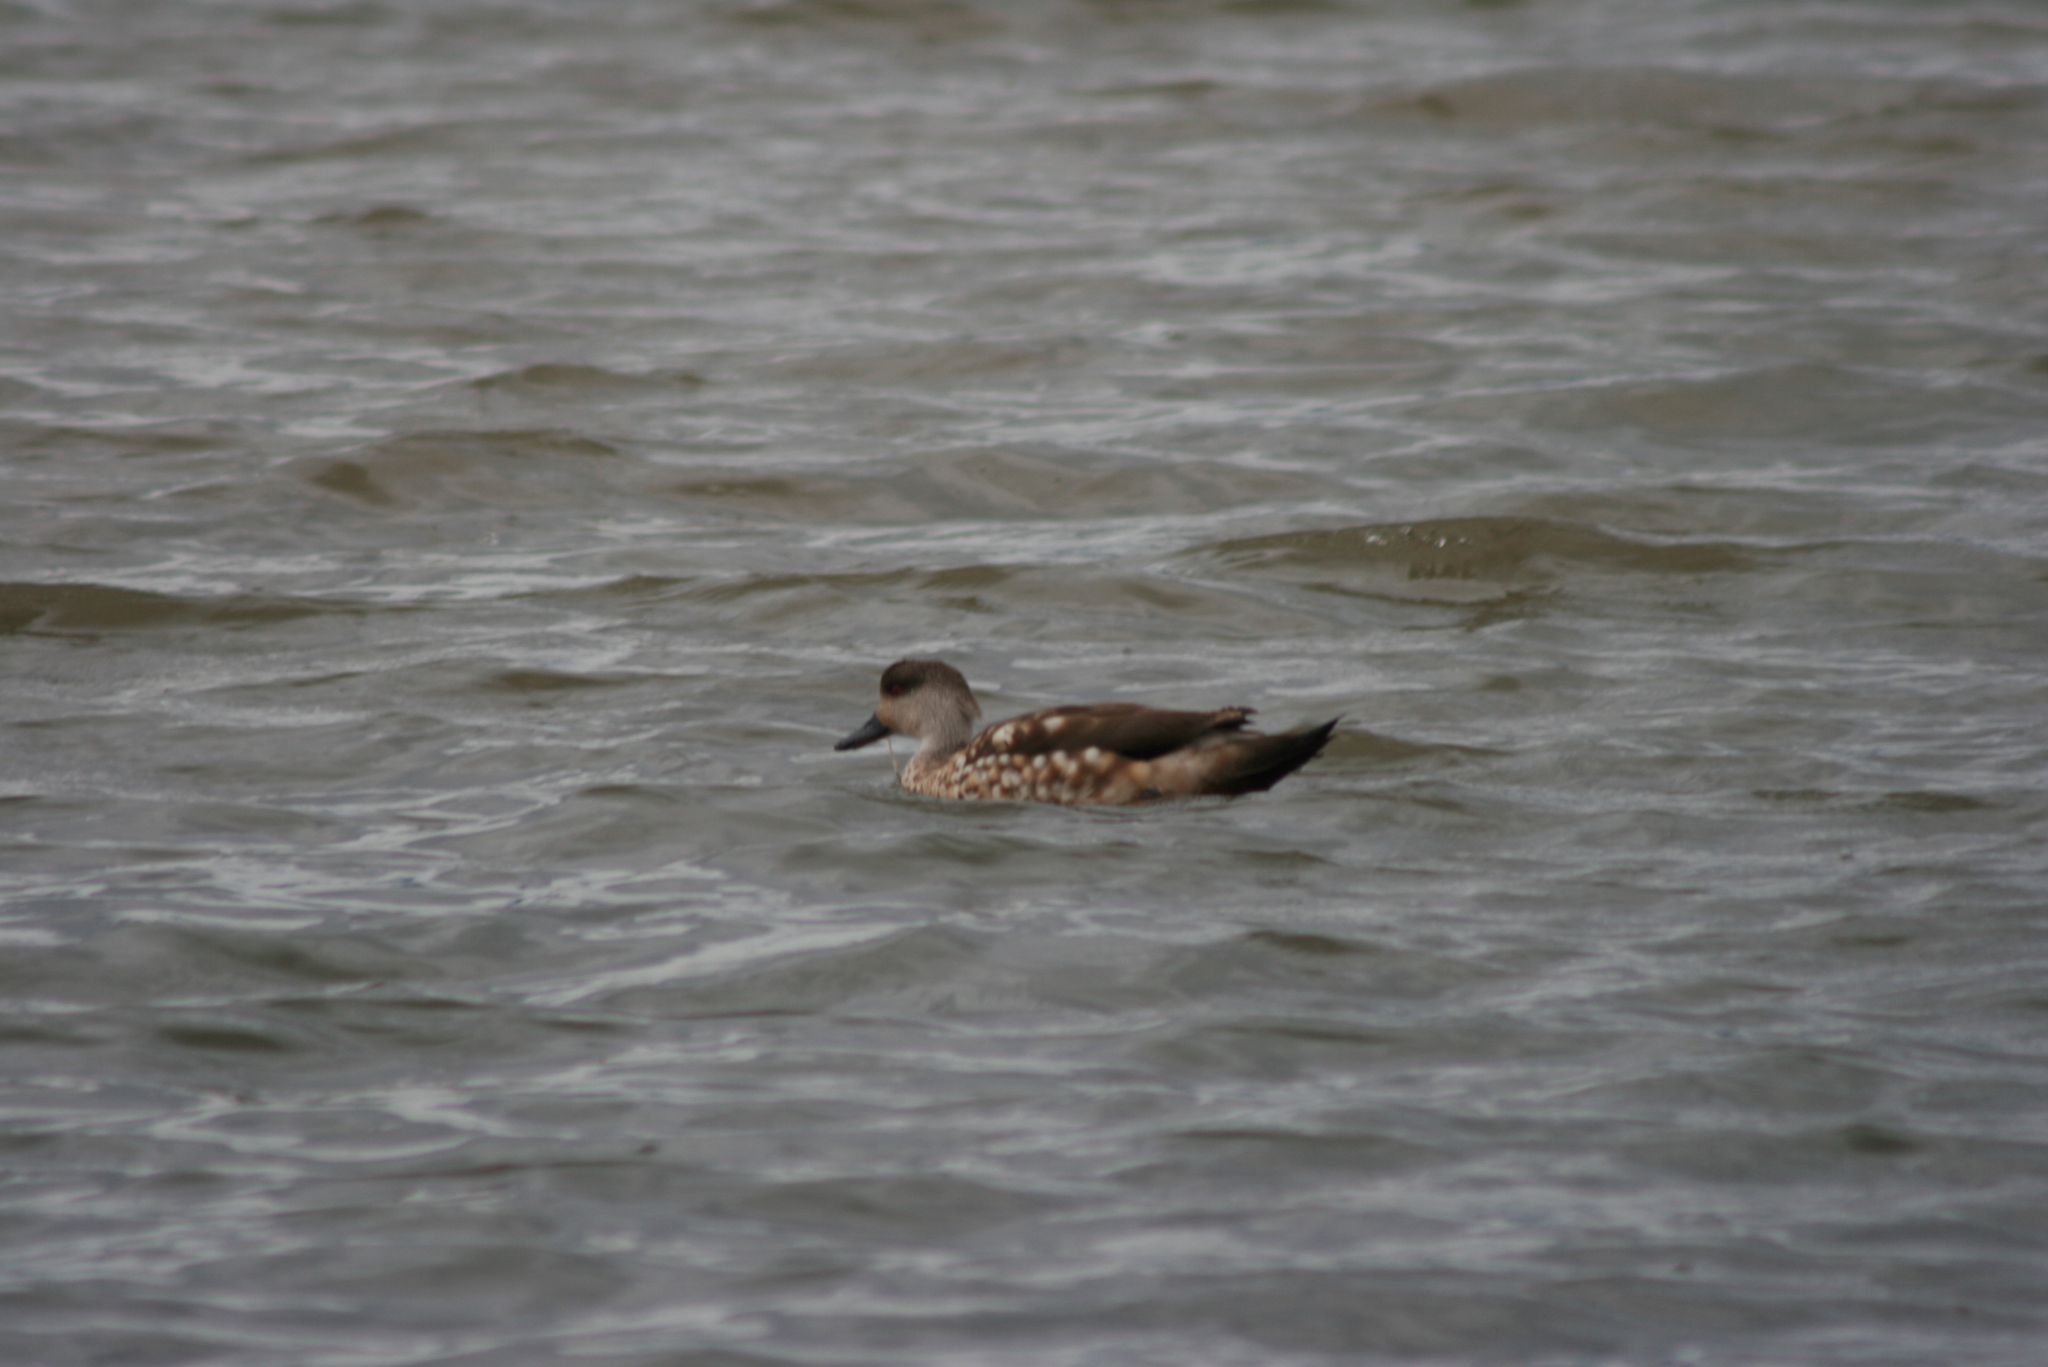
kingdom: Animalia
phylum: Chordata
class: Aves
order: Anseriformes
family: Anatidae
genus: Lophonetta
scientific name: Lophonetta specularioides
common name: Crested duck
